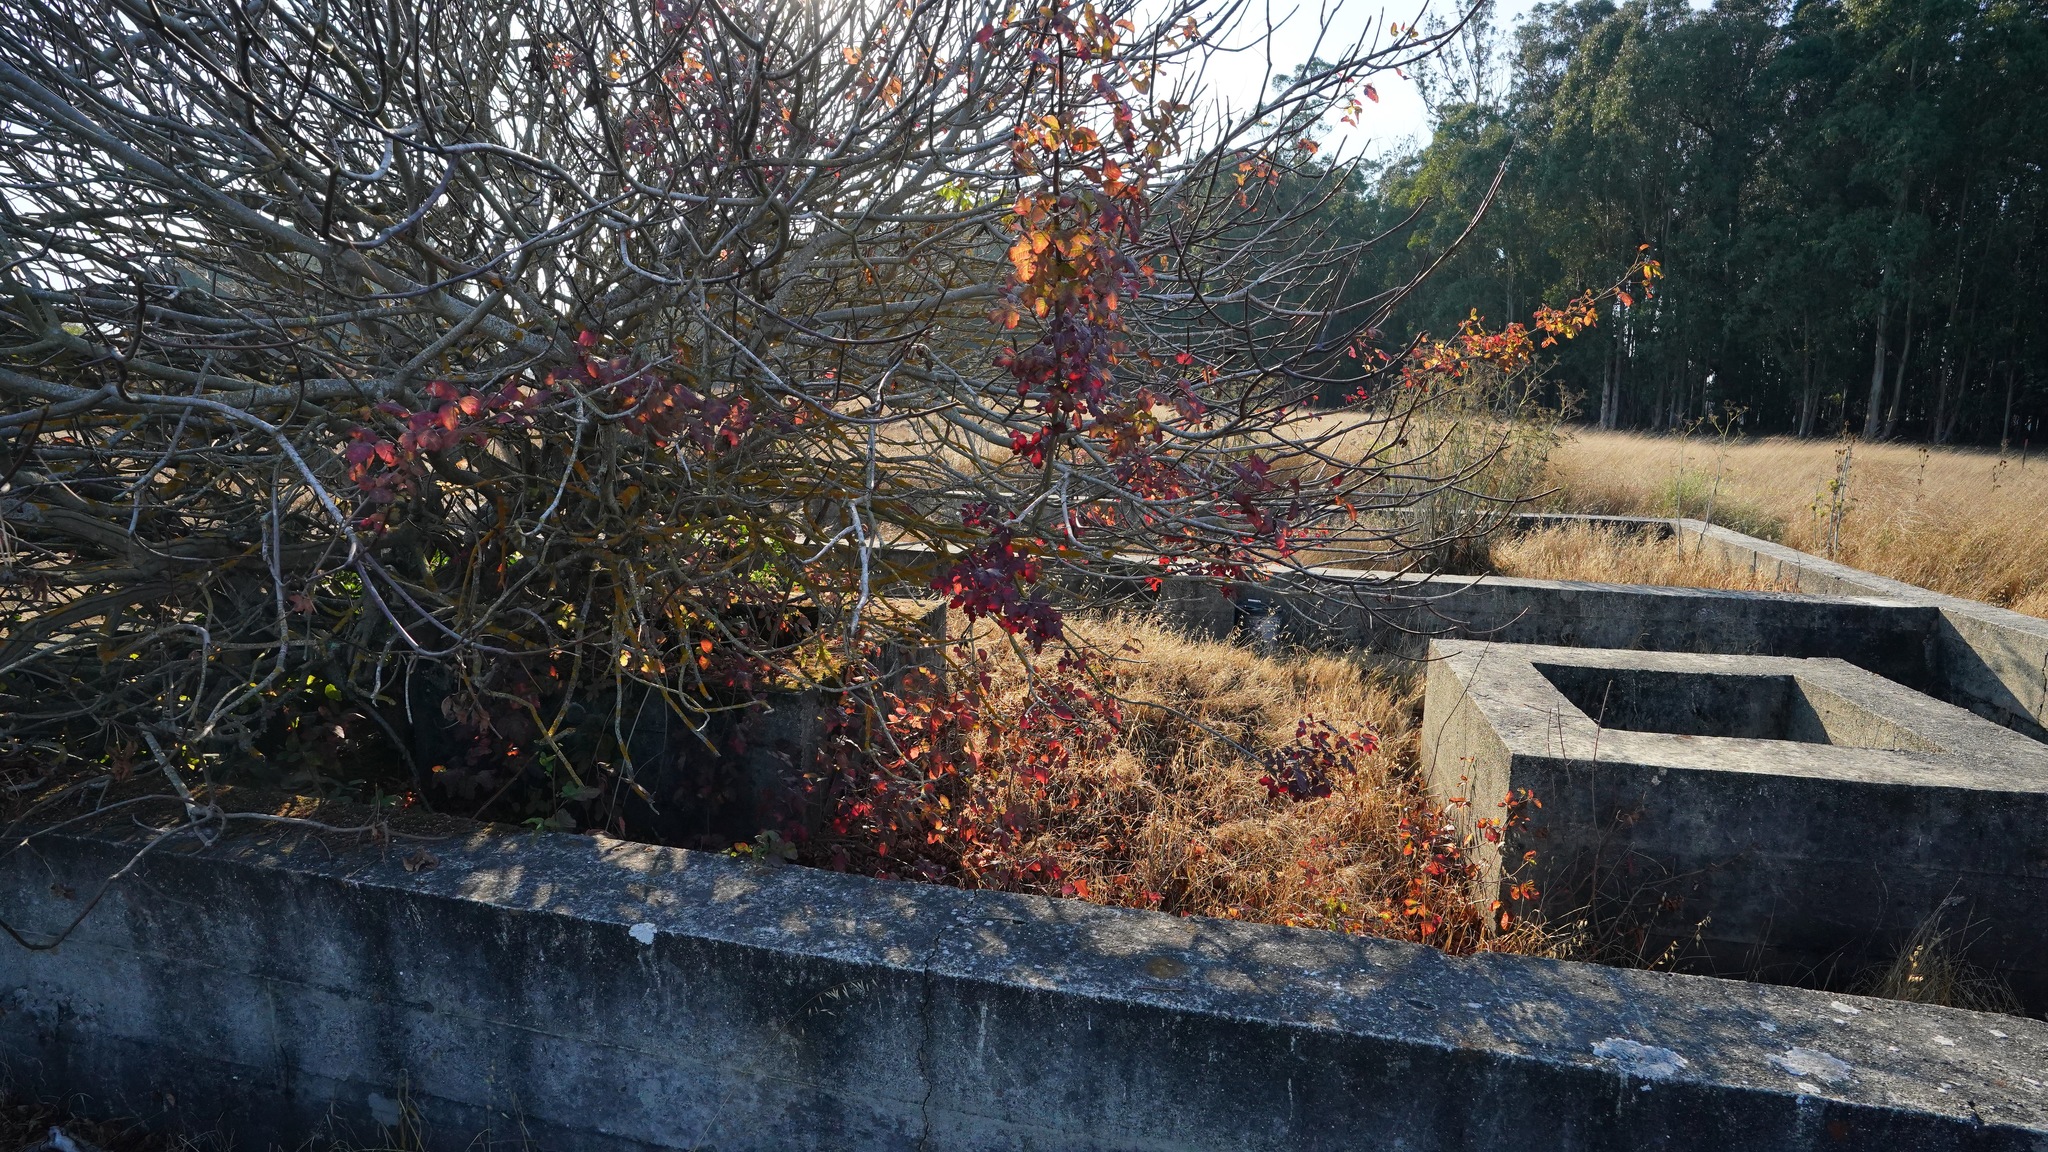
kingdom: Plantae
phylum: Tracheophyta
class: Magnoliopsida
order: Sapindales
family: Anacardiaceae
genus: Toxicodendron
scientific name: Toxicodendron diversilobum
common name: Pacific poison-oak
